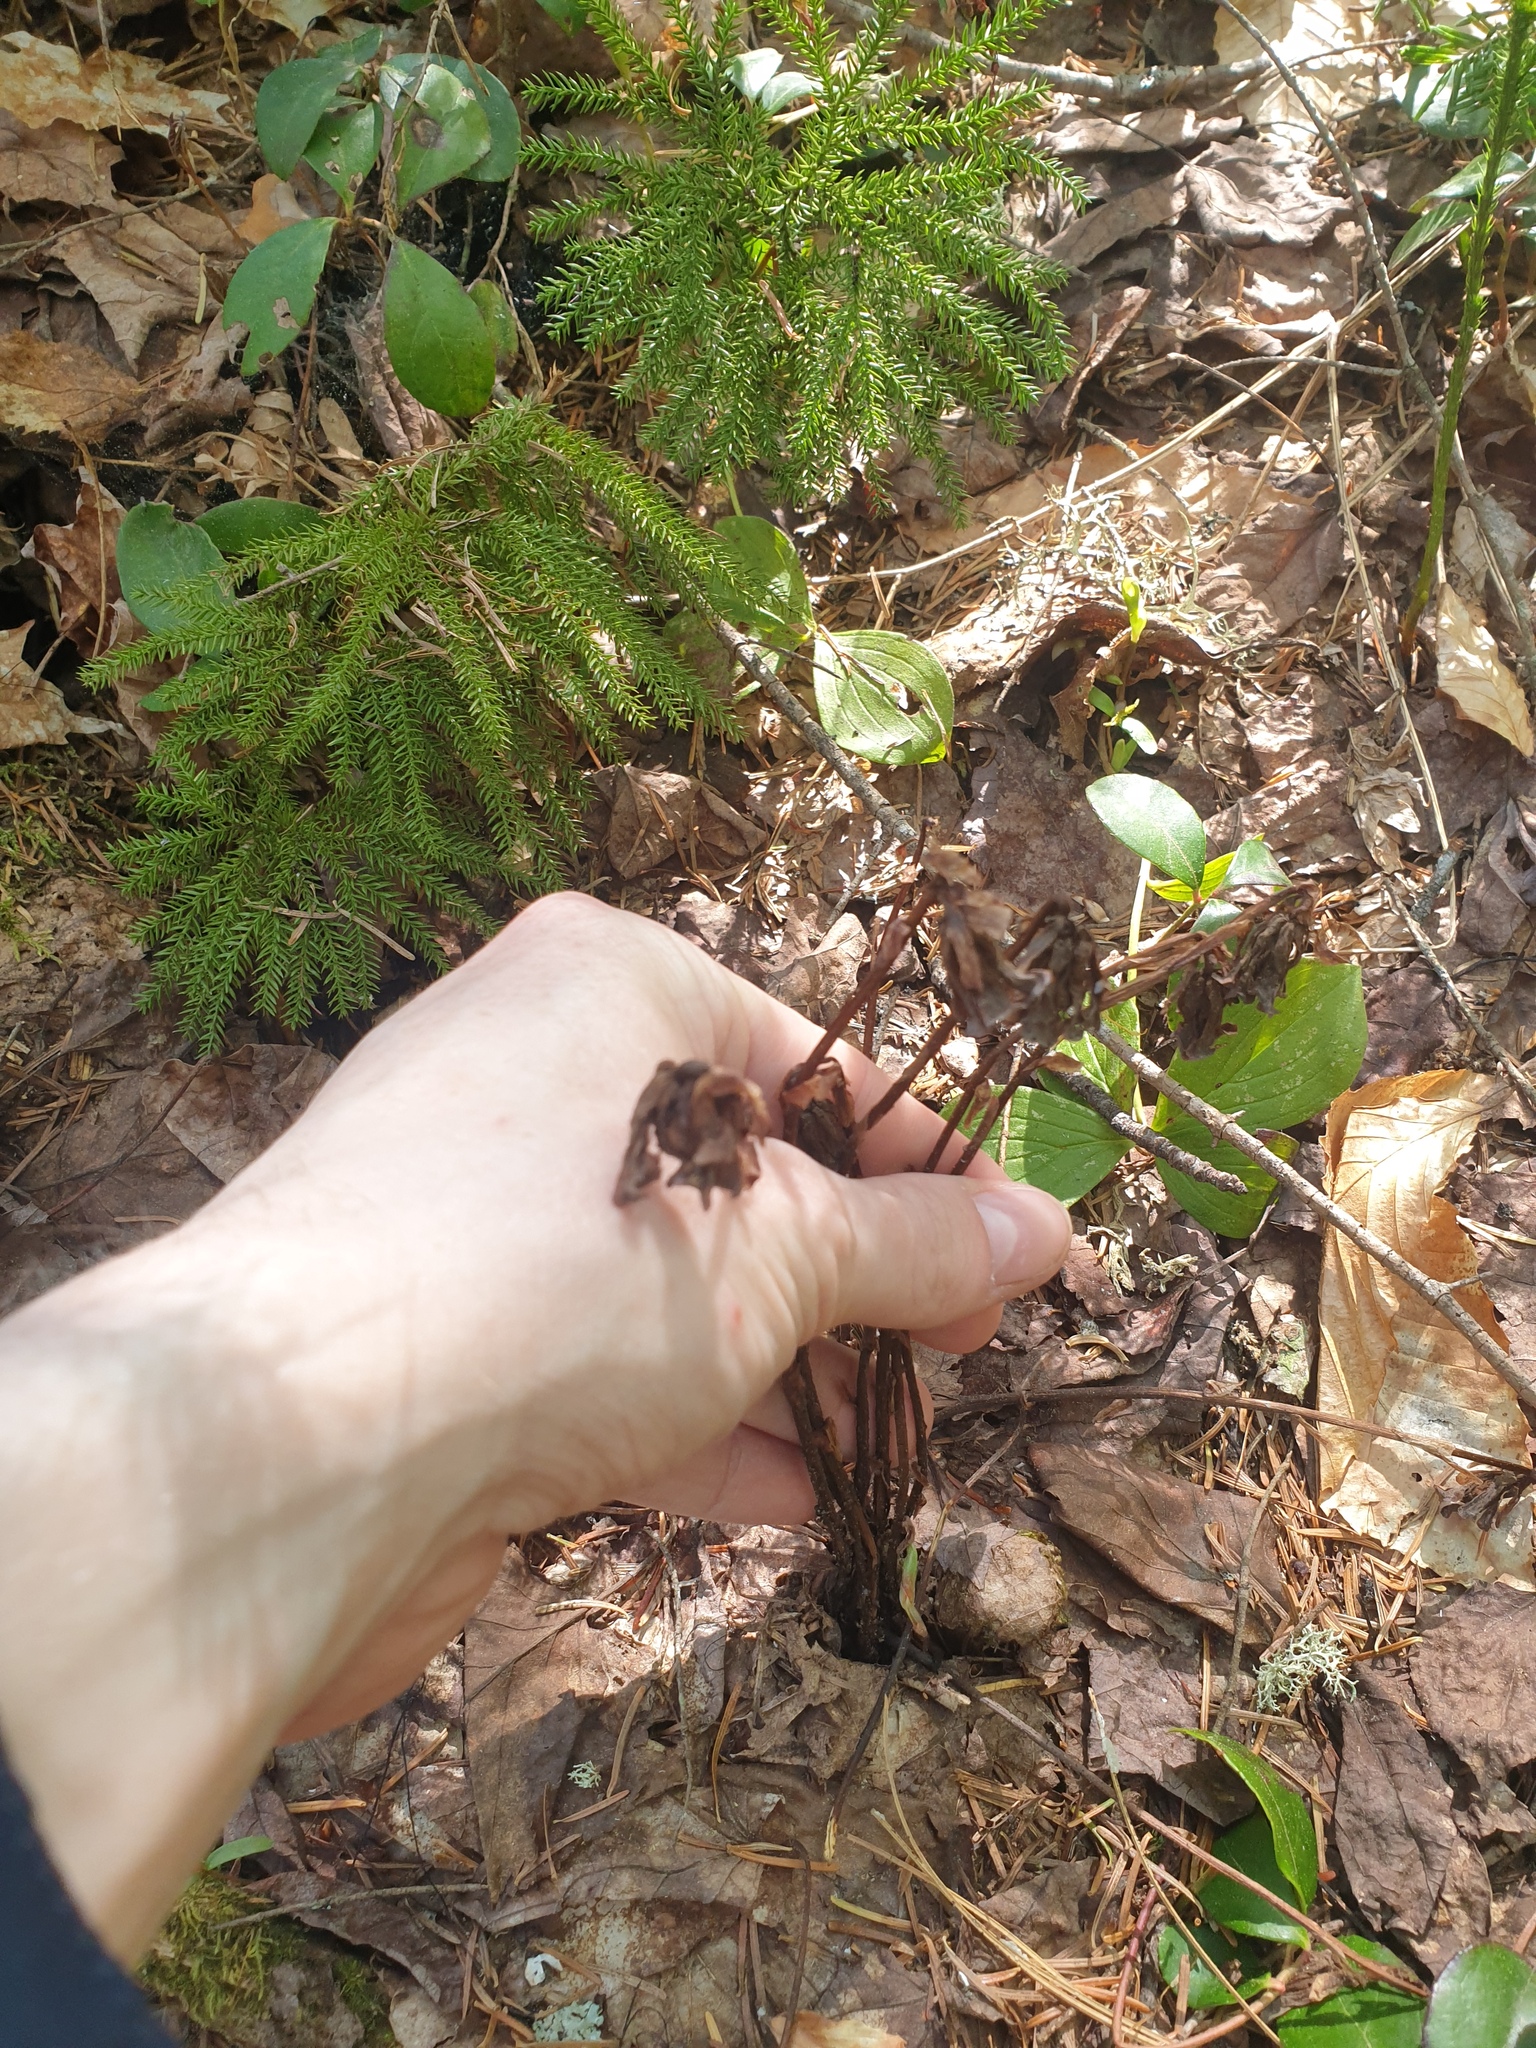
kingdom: Plantae
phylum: Tracheophyta
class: Magnoliopsida
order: Cornales
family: Cornaceae
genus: Cornus
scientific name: Cornus canadensis
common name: Creeping dogwood
